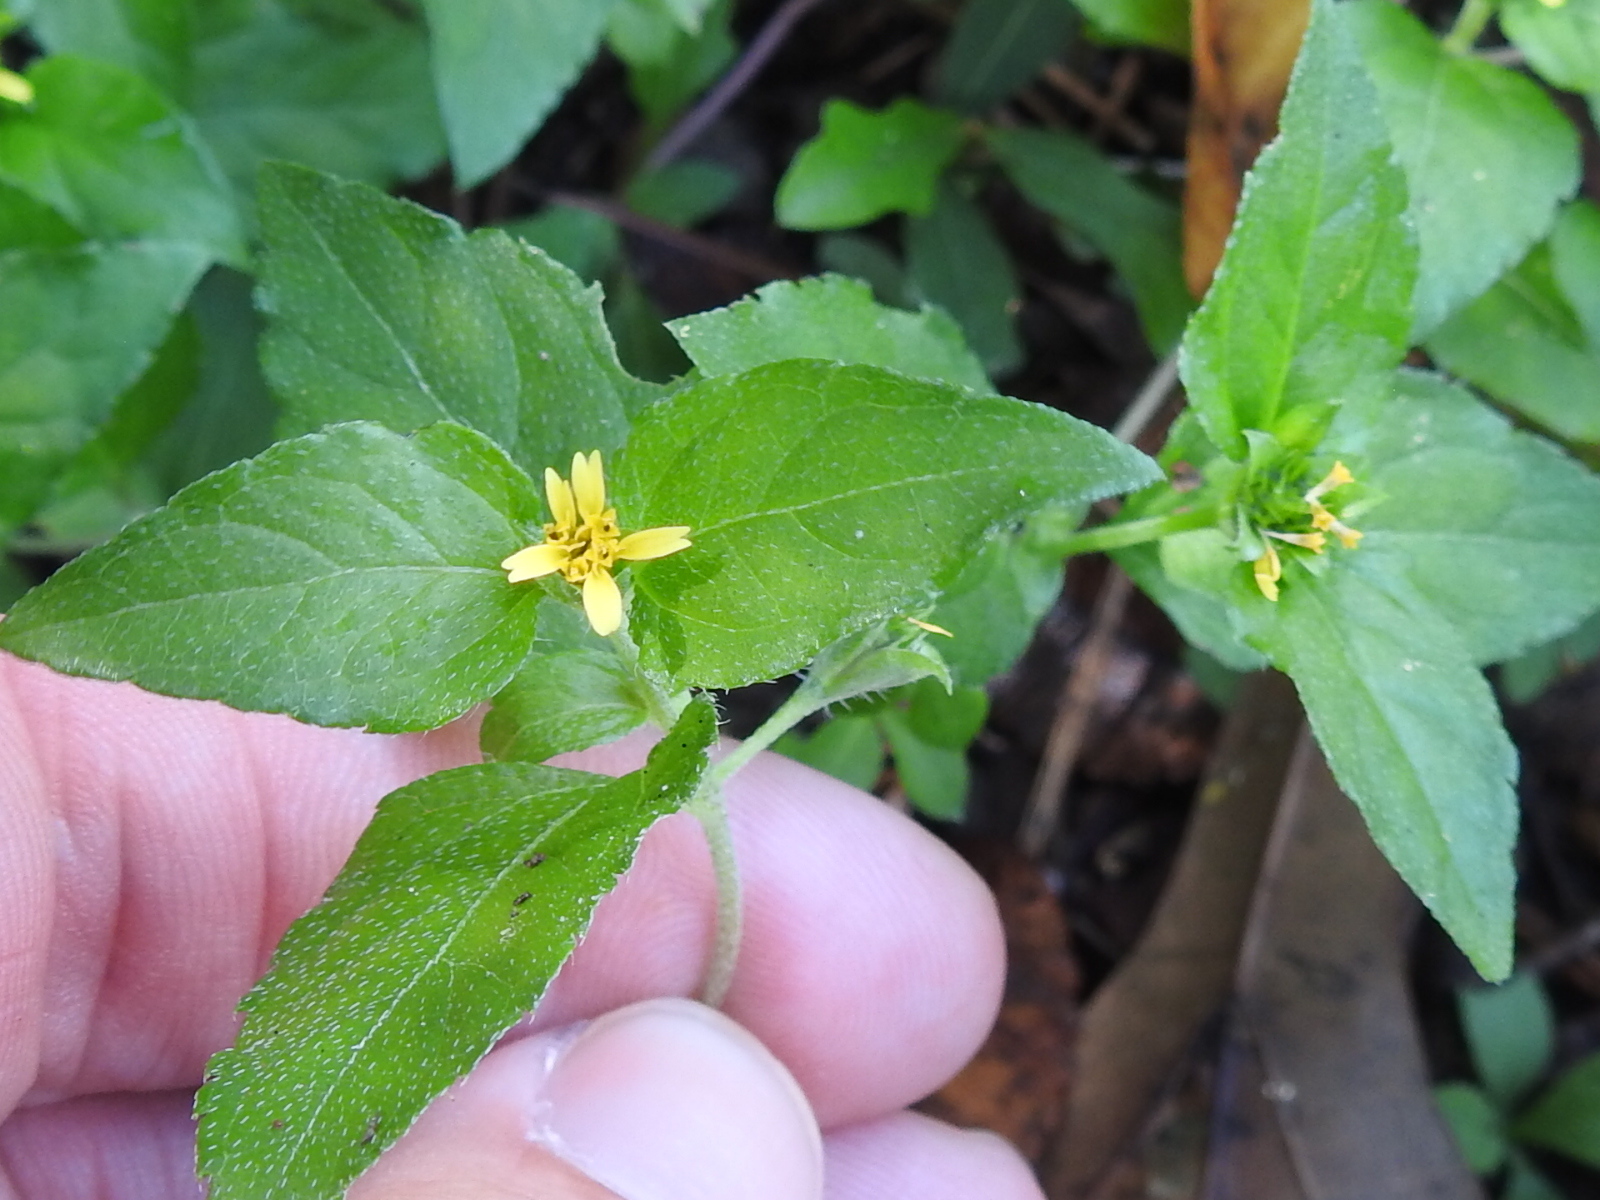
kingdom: Plantae
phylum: Tracheophyta
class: Magnoliopsida
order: Asterales
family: Asteraceae
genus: Calyptocarpus
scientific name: Calyptocarpus vialis
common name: Straggler daisy
